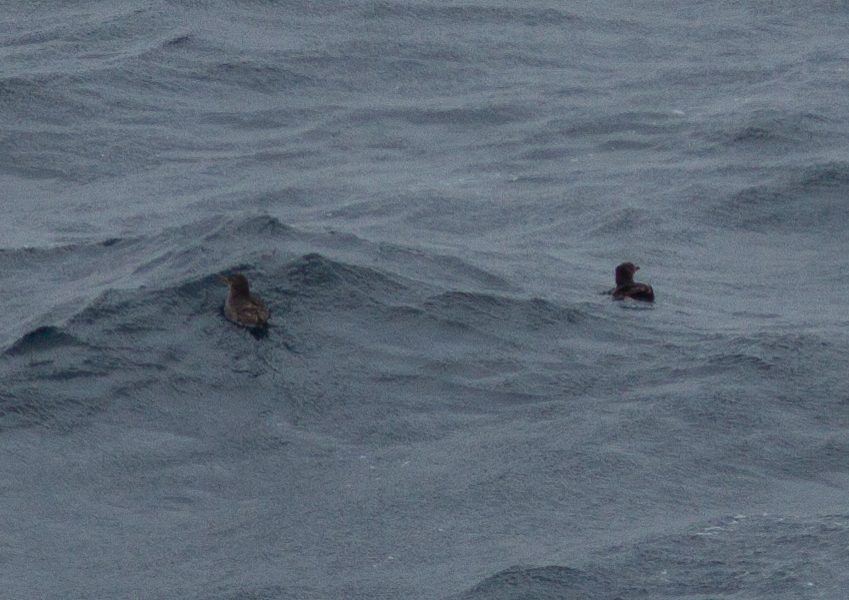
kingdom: Animalia
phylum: Chordata
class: Aves
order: Charadriiformes
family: Alcidae
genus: Cerorhinca
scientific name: Cerorhinca monocerata
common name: Rhinoceros auklet
